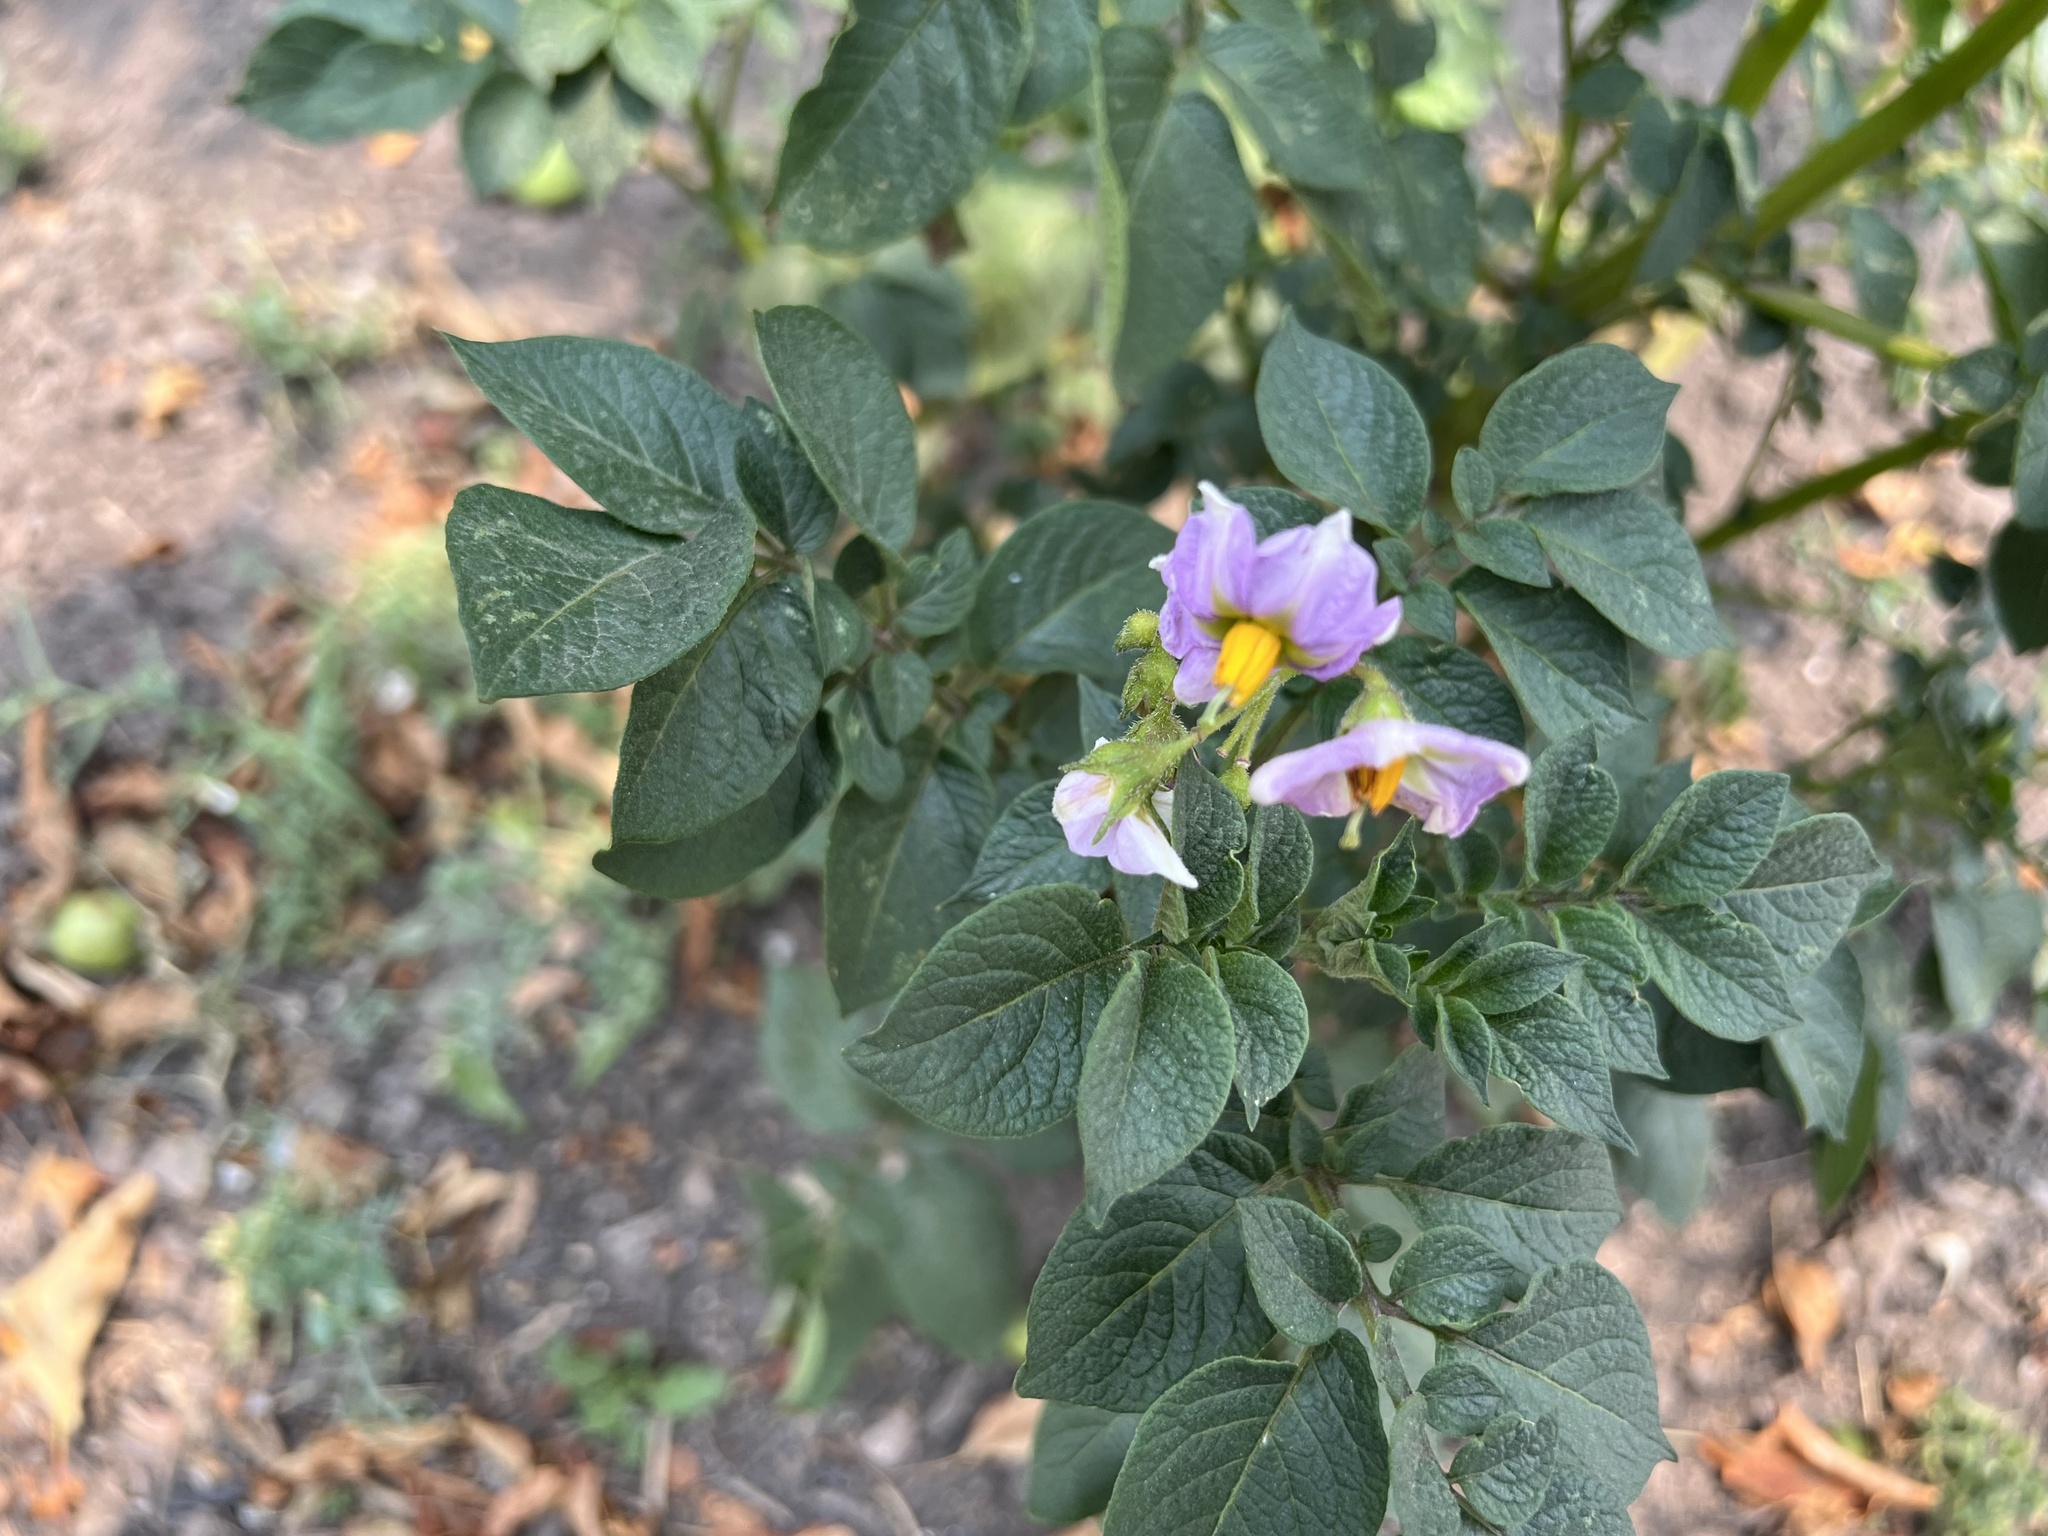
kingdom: Plantae
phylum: Tracheophyta
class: Magnoliopsida
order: Solanales
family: Solanaceae
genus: Solanum
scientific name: Solanum tuberosum
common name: Potato
